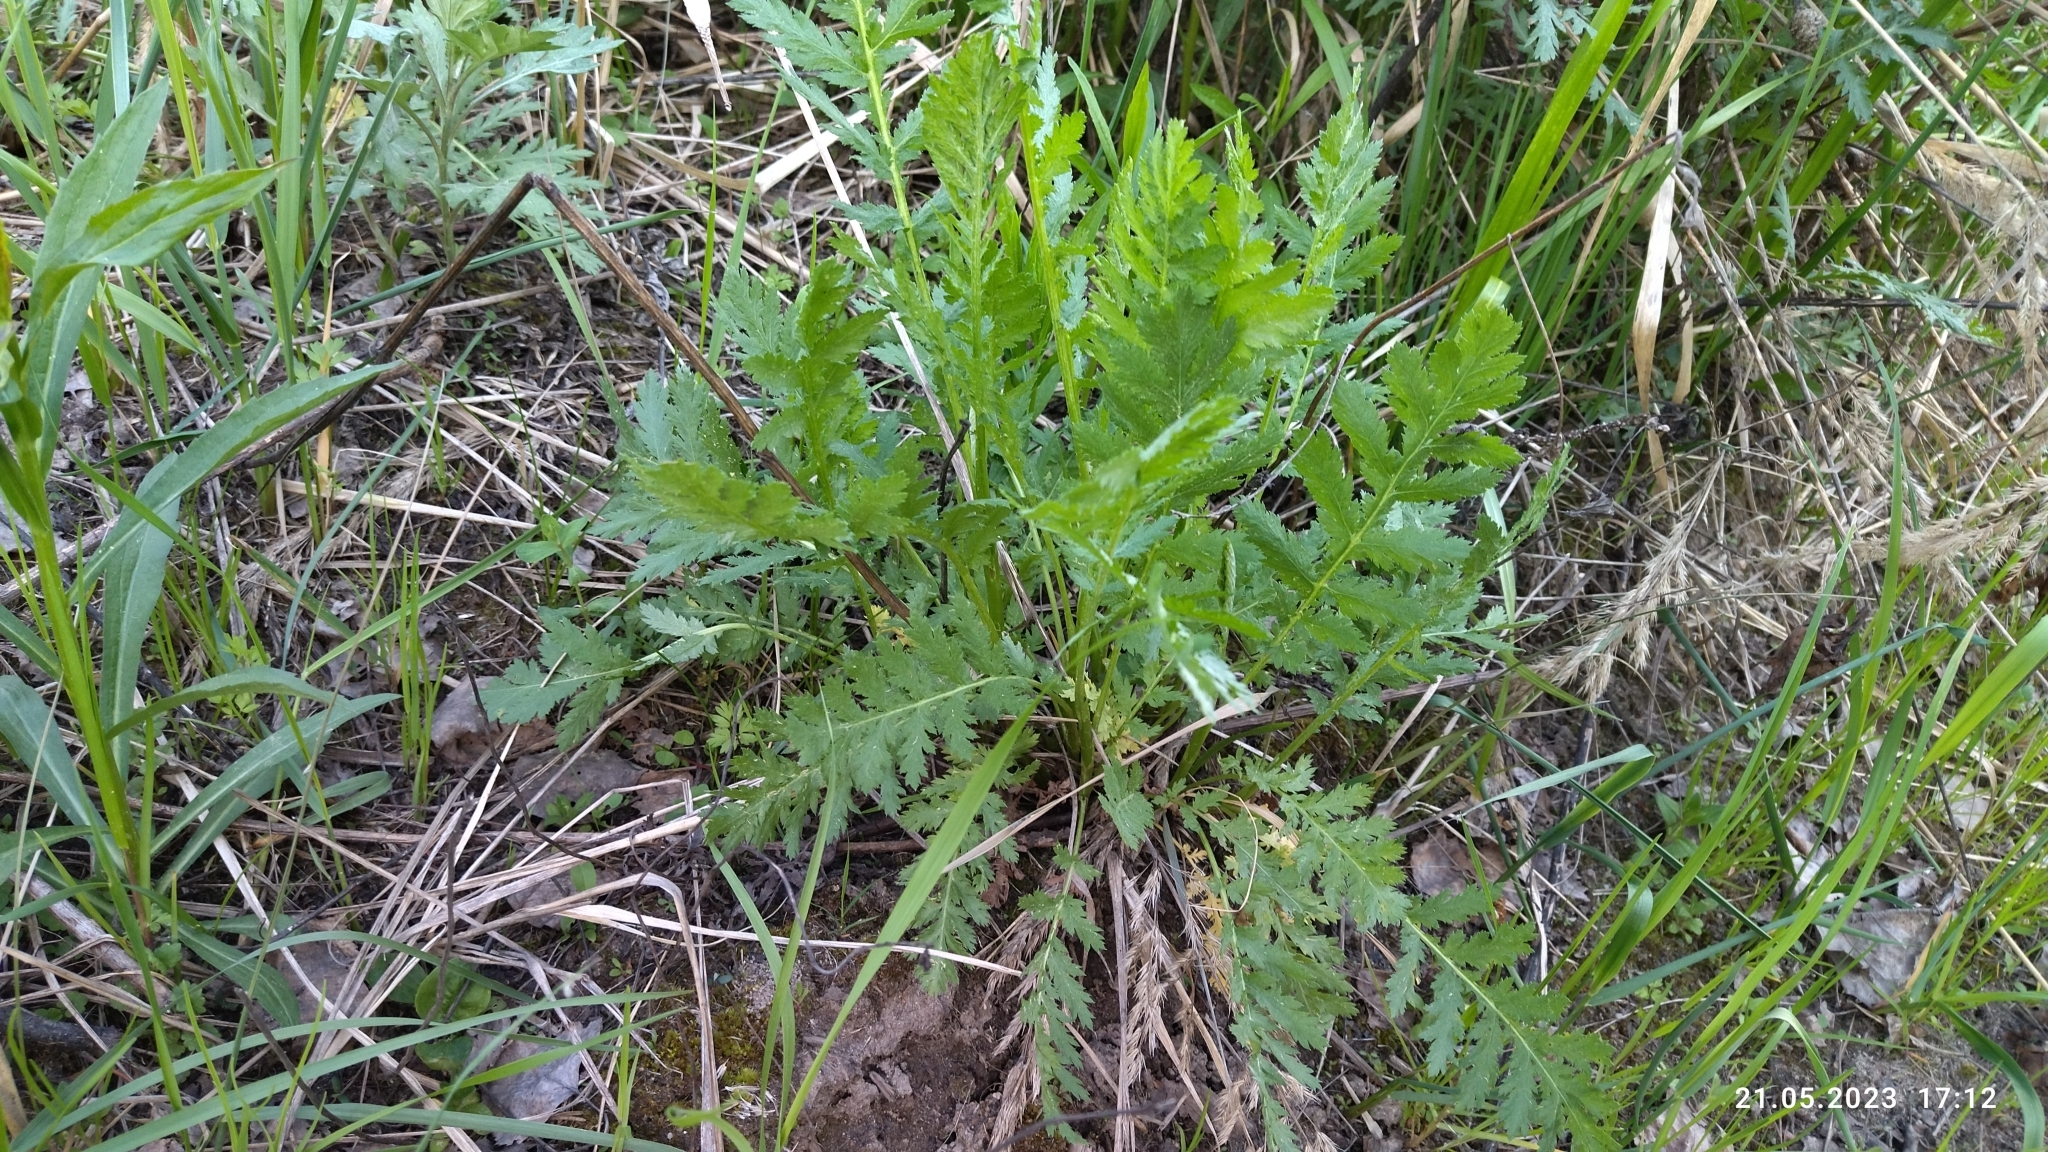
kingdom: Plantae
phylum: Tracheophyta
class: Magnoliopsida
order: Asterales
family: Asteraceae
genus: Tanacetum
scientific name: Tanacetum vulgare
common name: Common tansy
